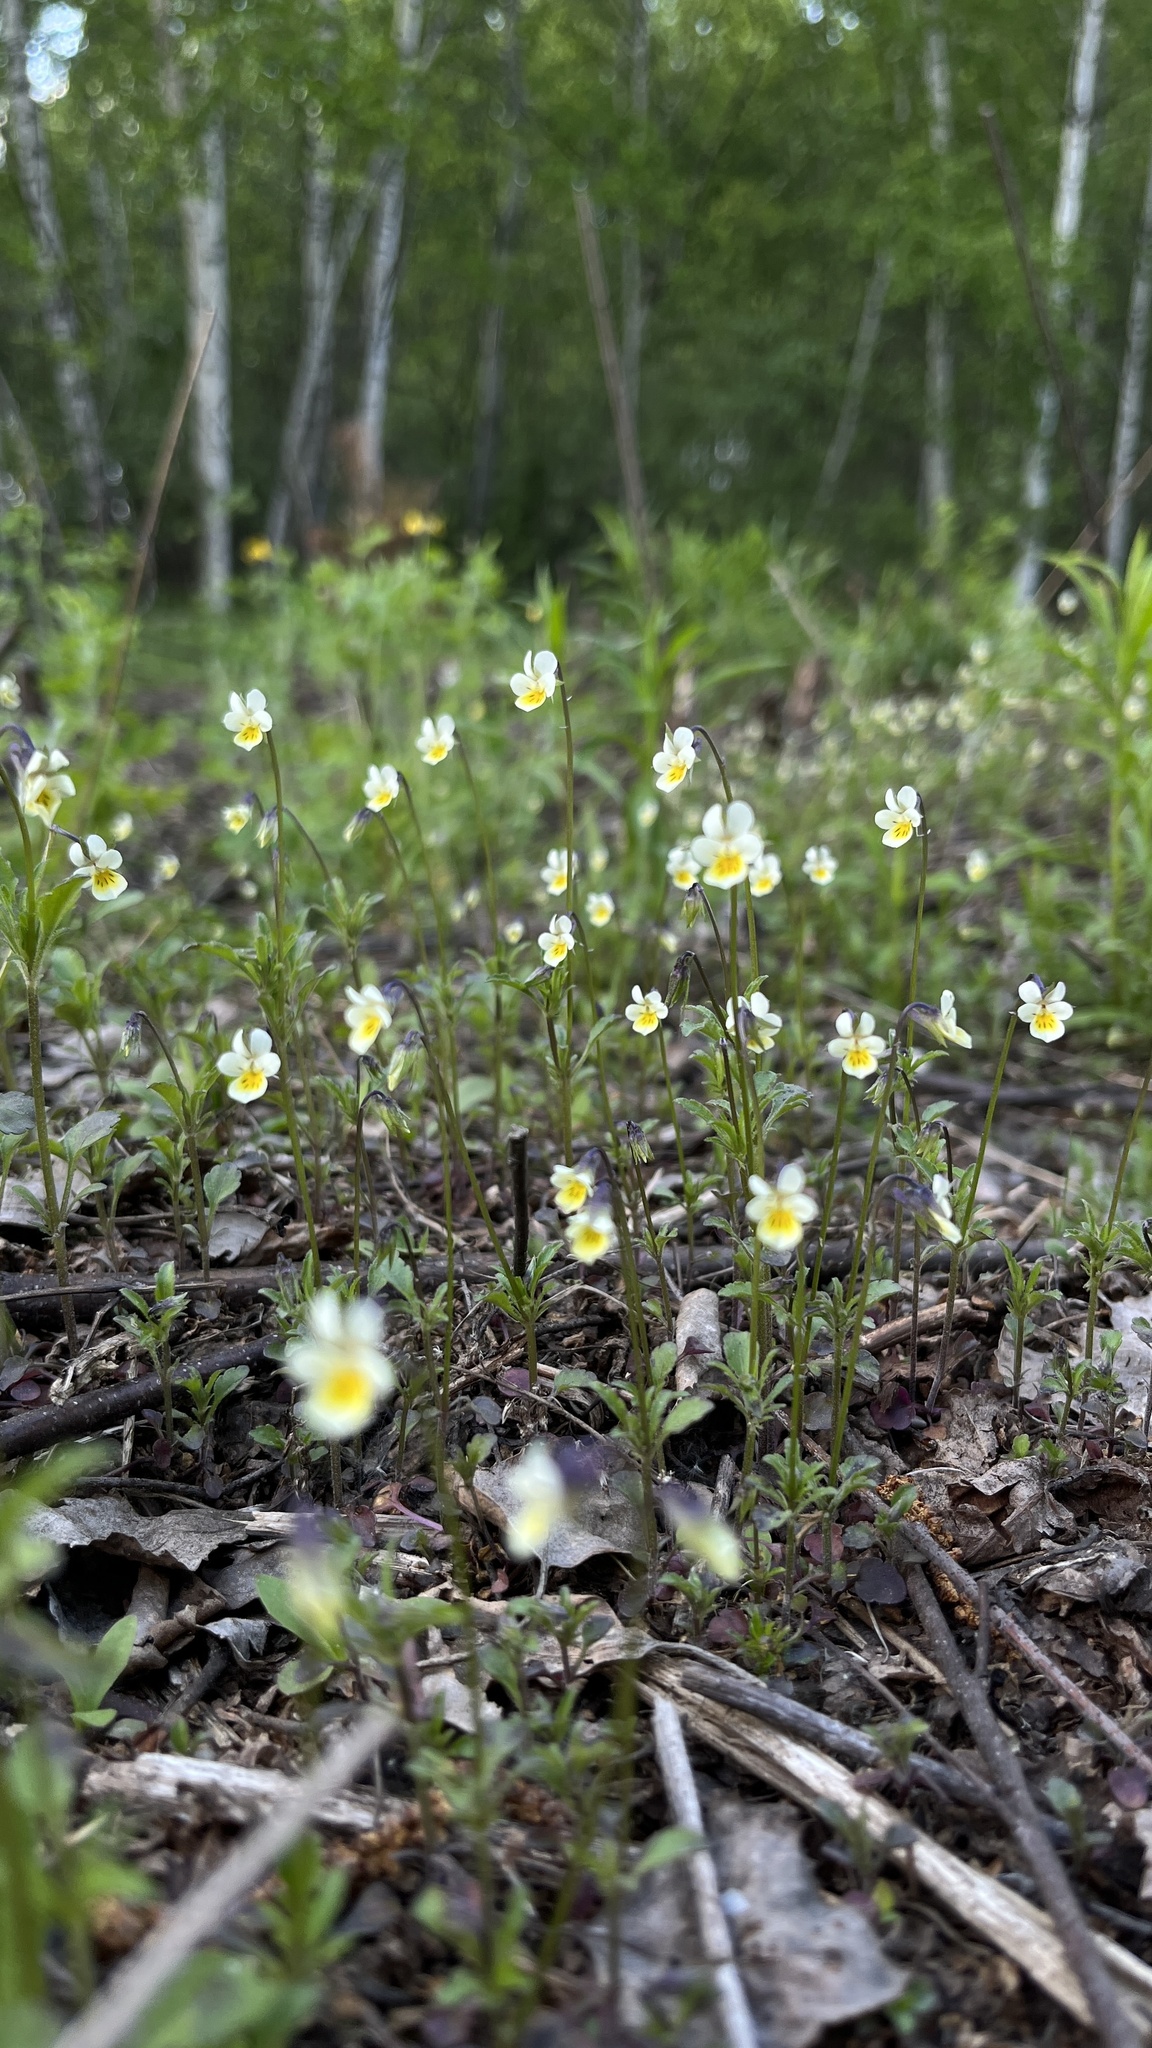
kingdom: Plantae
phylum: Tracheophyta
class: Magnoliopsida
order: Malpighiales
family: Violaceae
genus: Viola
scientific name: Viola arvensis
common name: Field pansy
